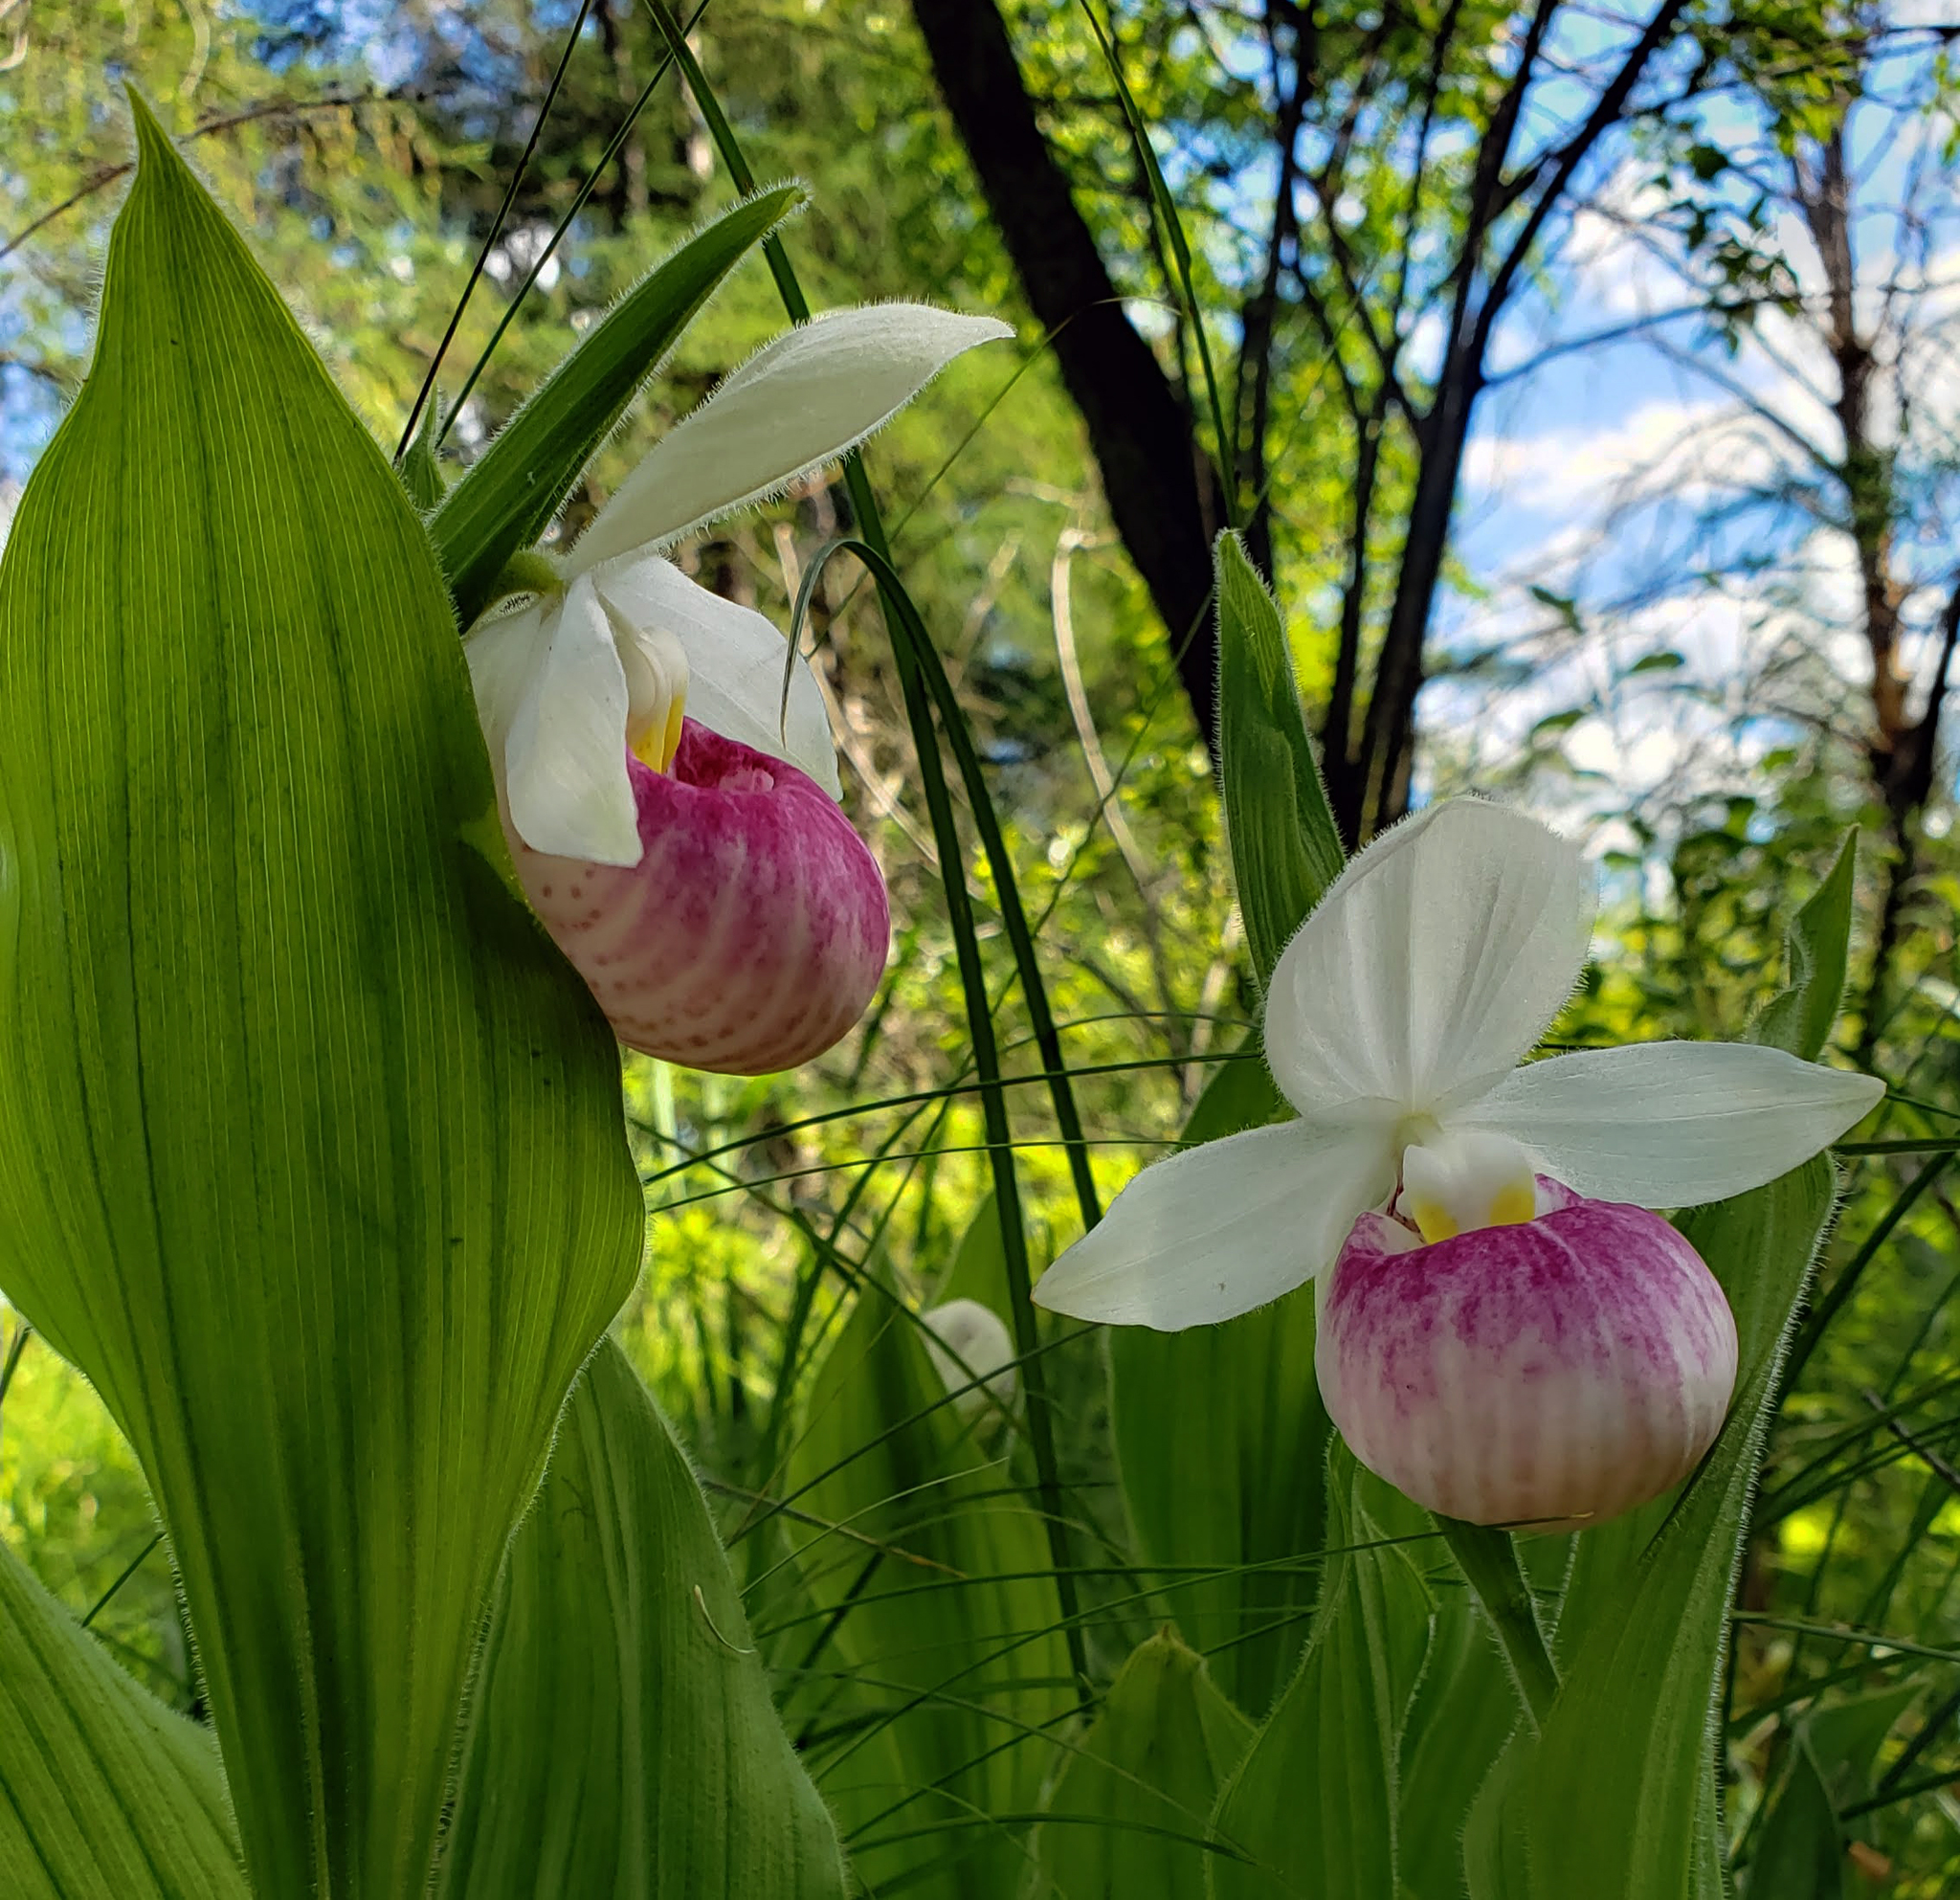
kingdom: Plantae
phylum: Tracheophyta
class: Liliopsida
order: Asparagales
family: Orchidaceae
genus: Cypripedium
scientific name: Cypripedium reginae
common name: Queen lady's-slipper
